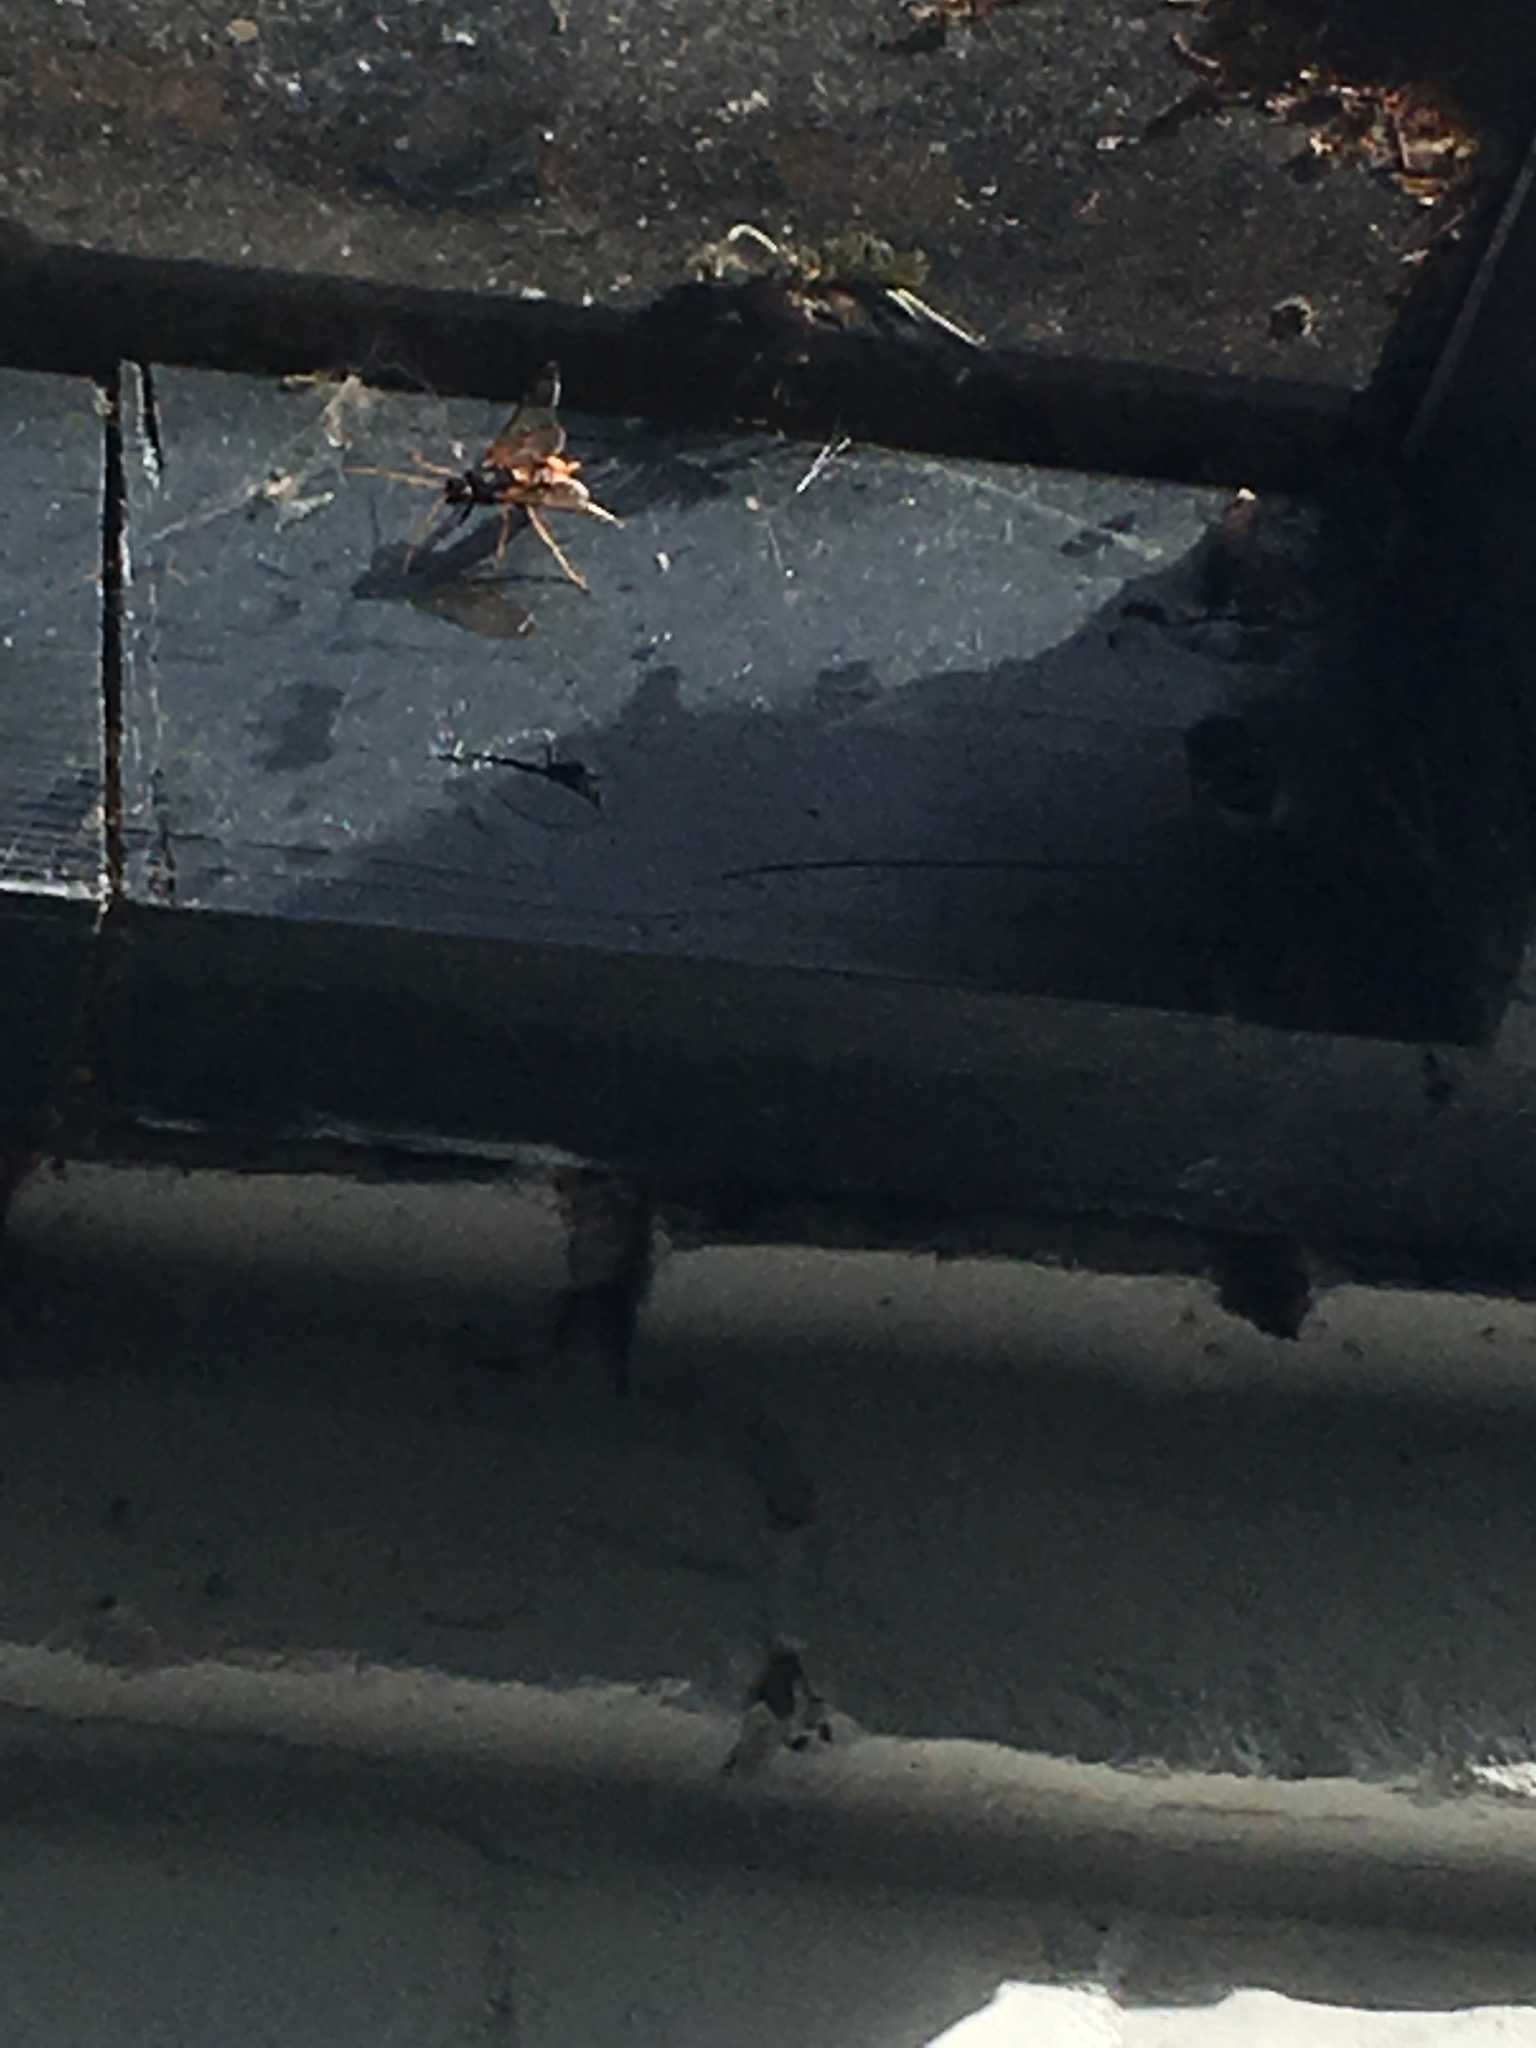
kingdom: Animalia
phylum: Arthropoda
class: Insecta
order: Hymenoptera
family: Siricidae
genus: Urocerus
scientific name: Urocerus gigas
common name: Giant woodwasp
